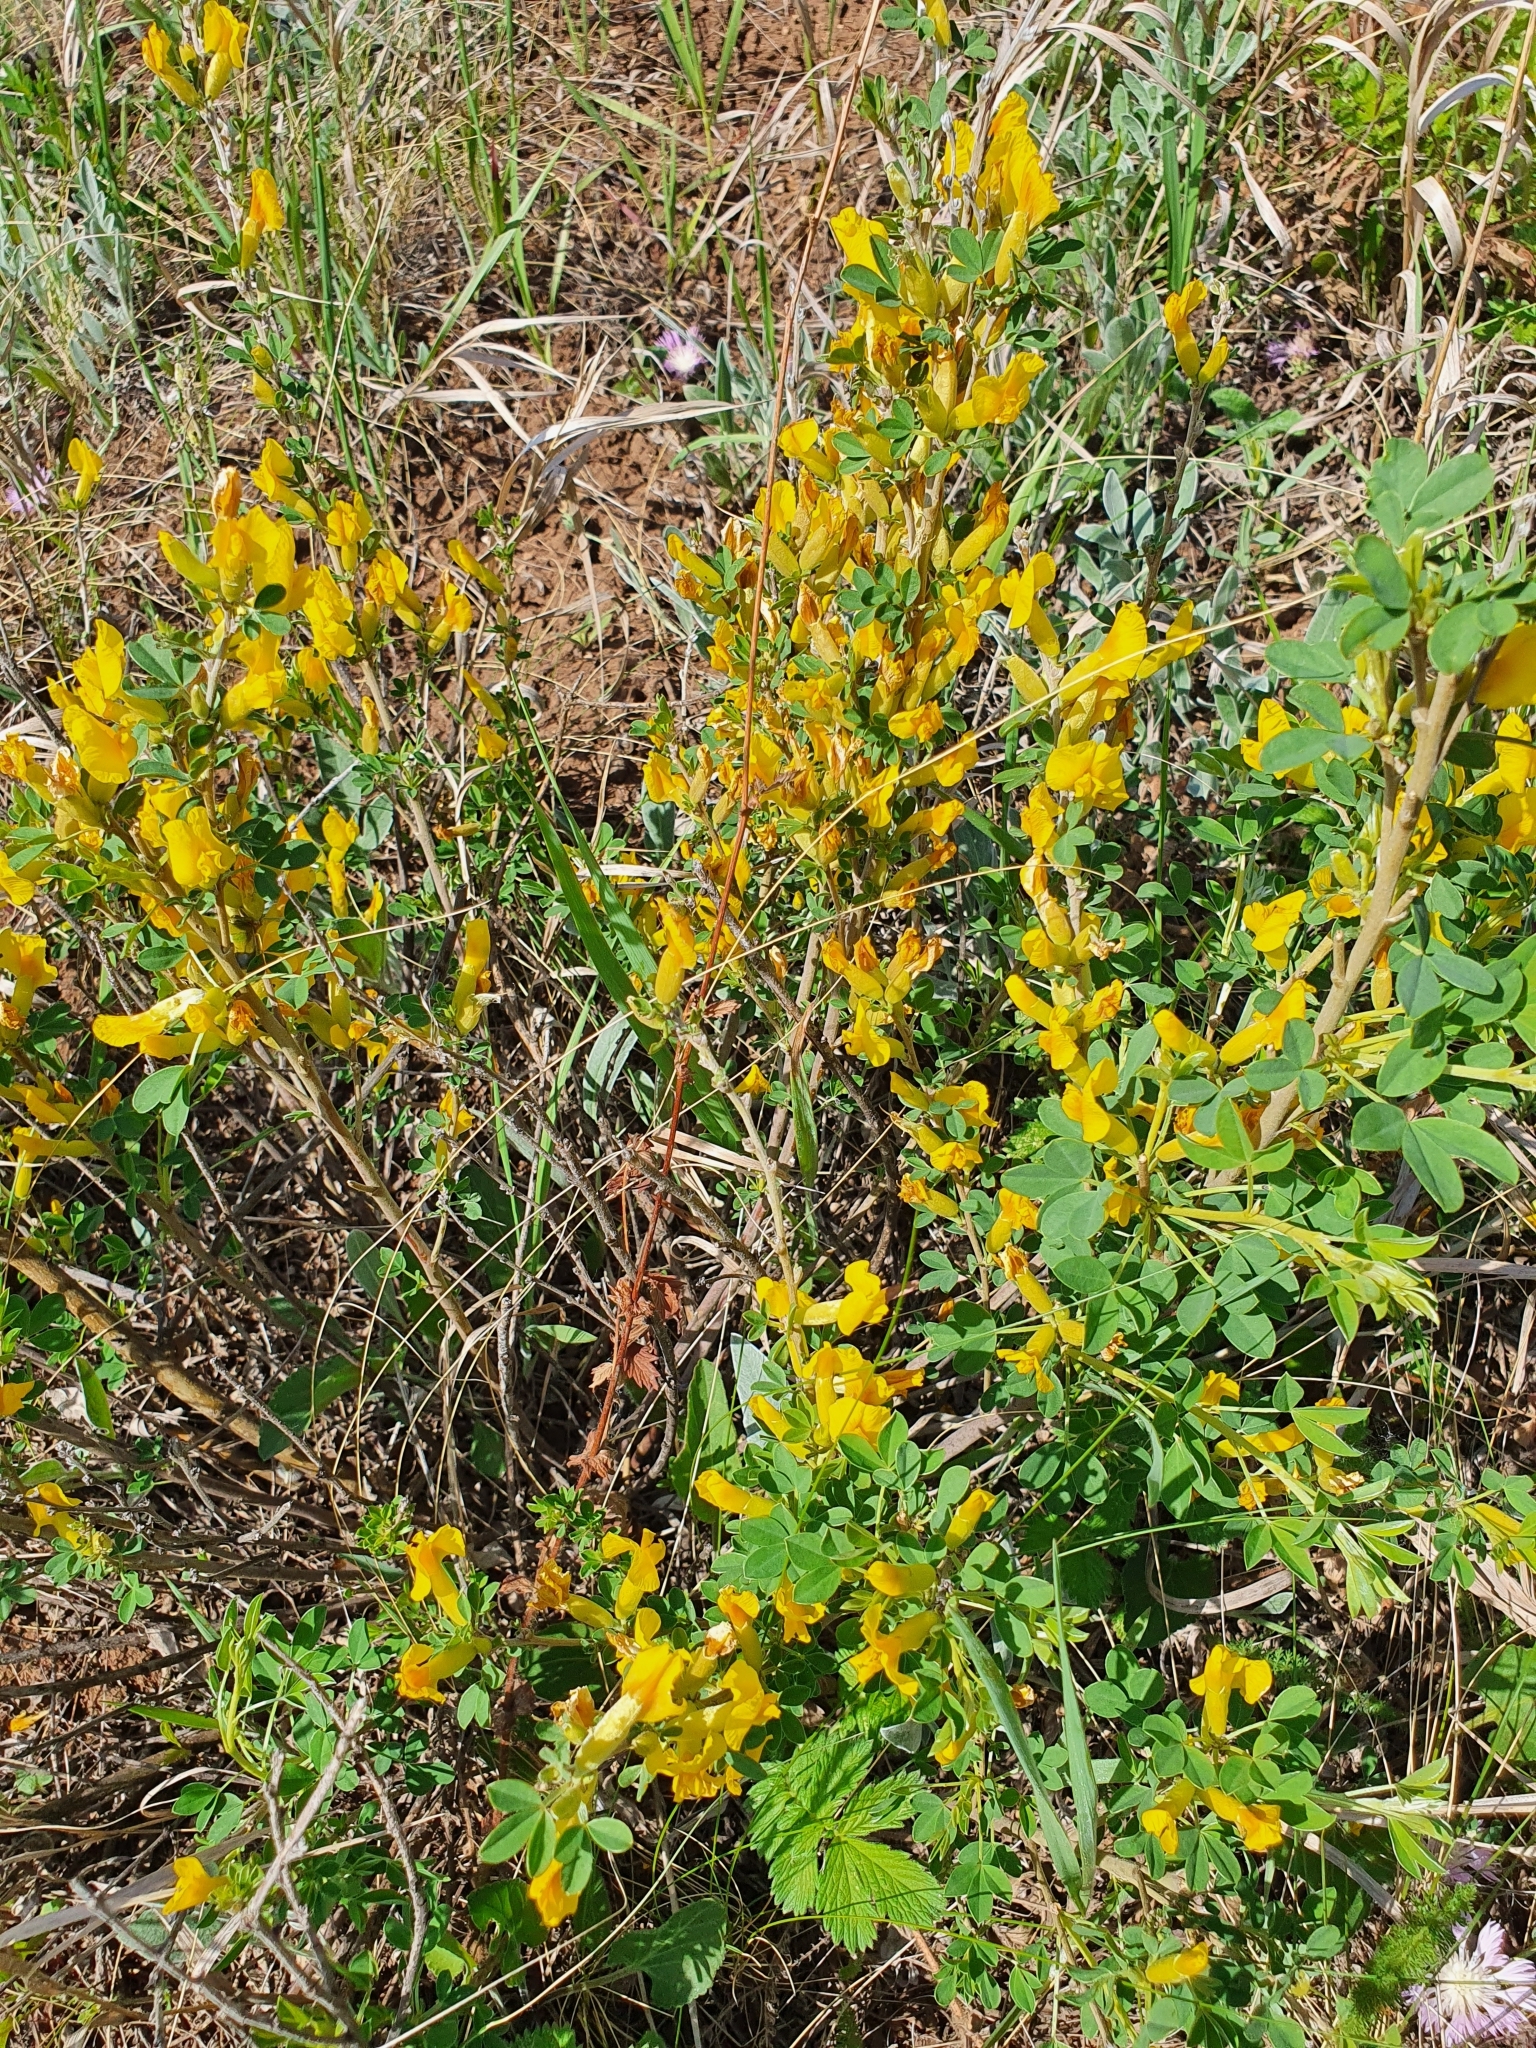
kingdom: Plantae
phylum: Tracheophyta
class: Magnoliopsida
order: Fabales
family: Fabaceae
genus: Chamaecytisus
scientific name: Chamaecytisus ruthenicus
